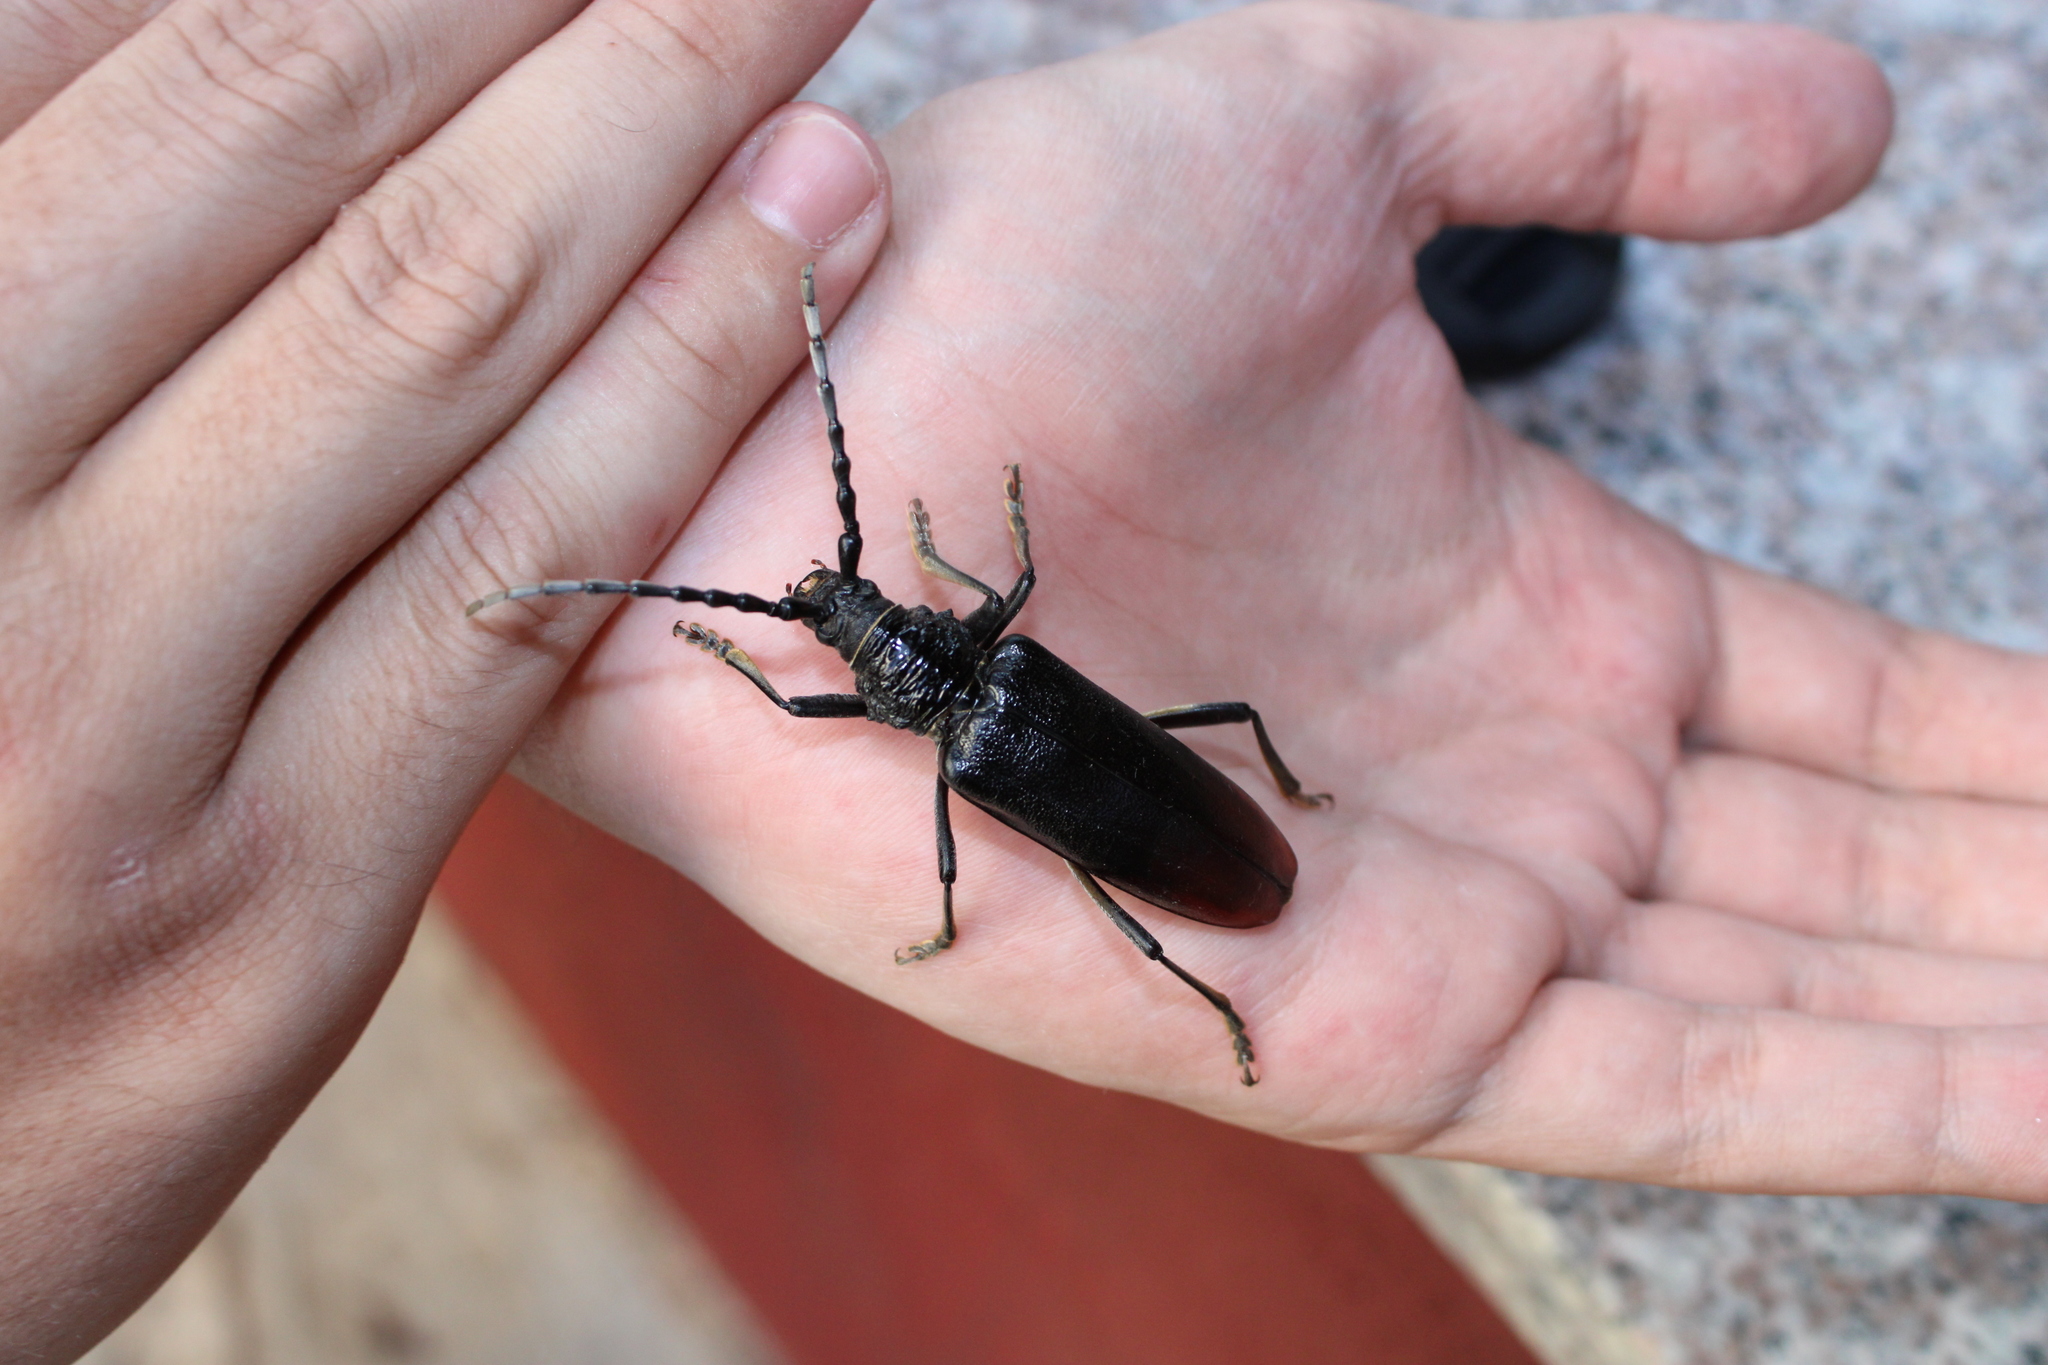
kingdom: Animalia
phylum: Arthropoda
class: Insecta
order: Coleoptera
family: Cerambycidae
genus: Cerambyx
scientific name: Cerambyx miles
